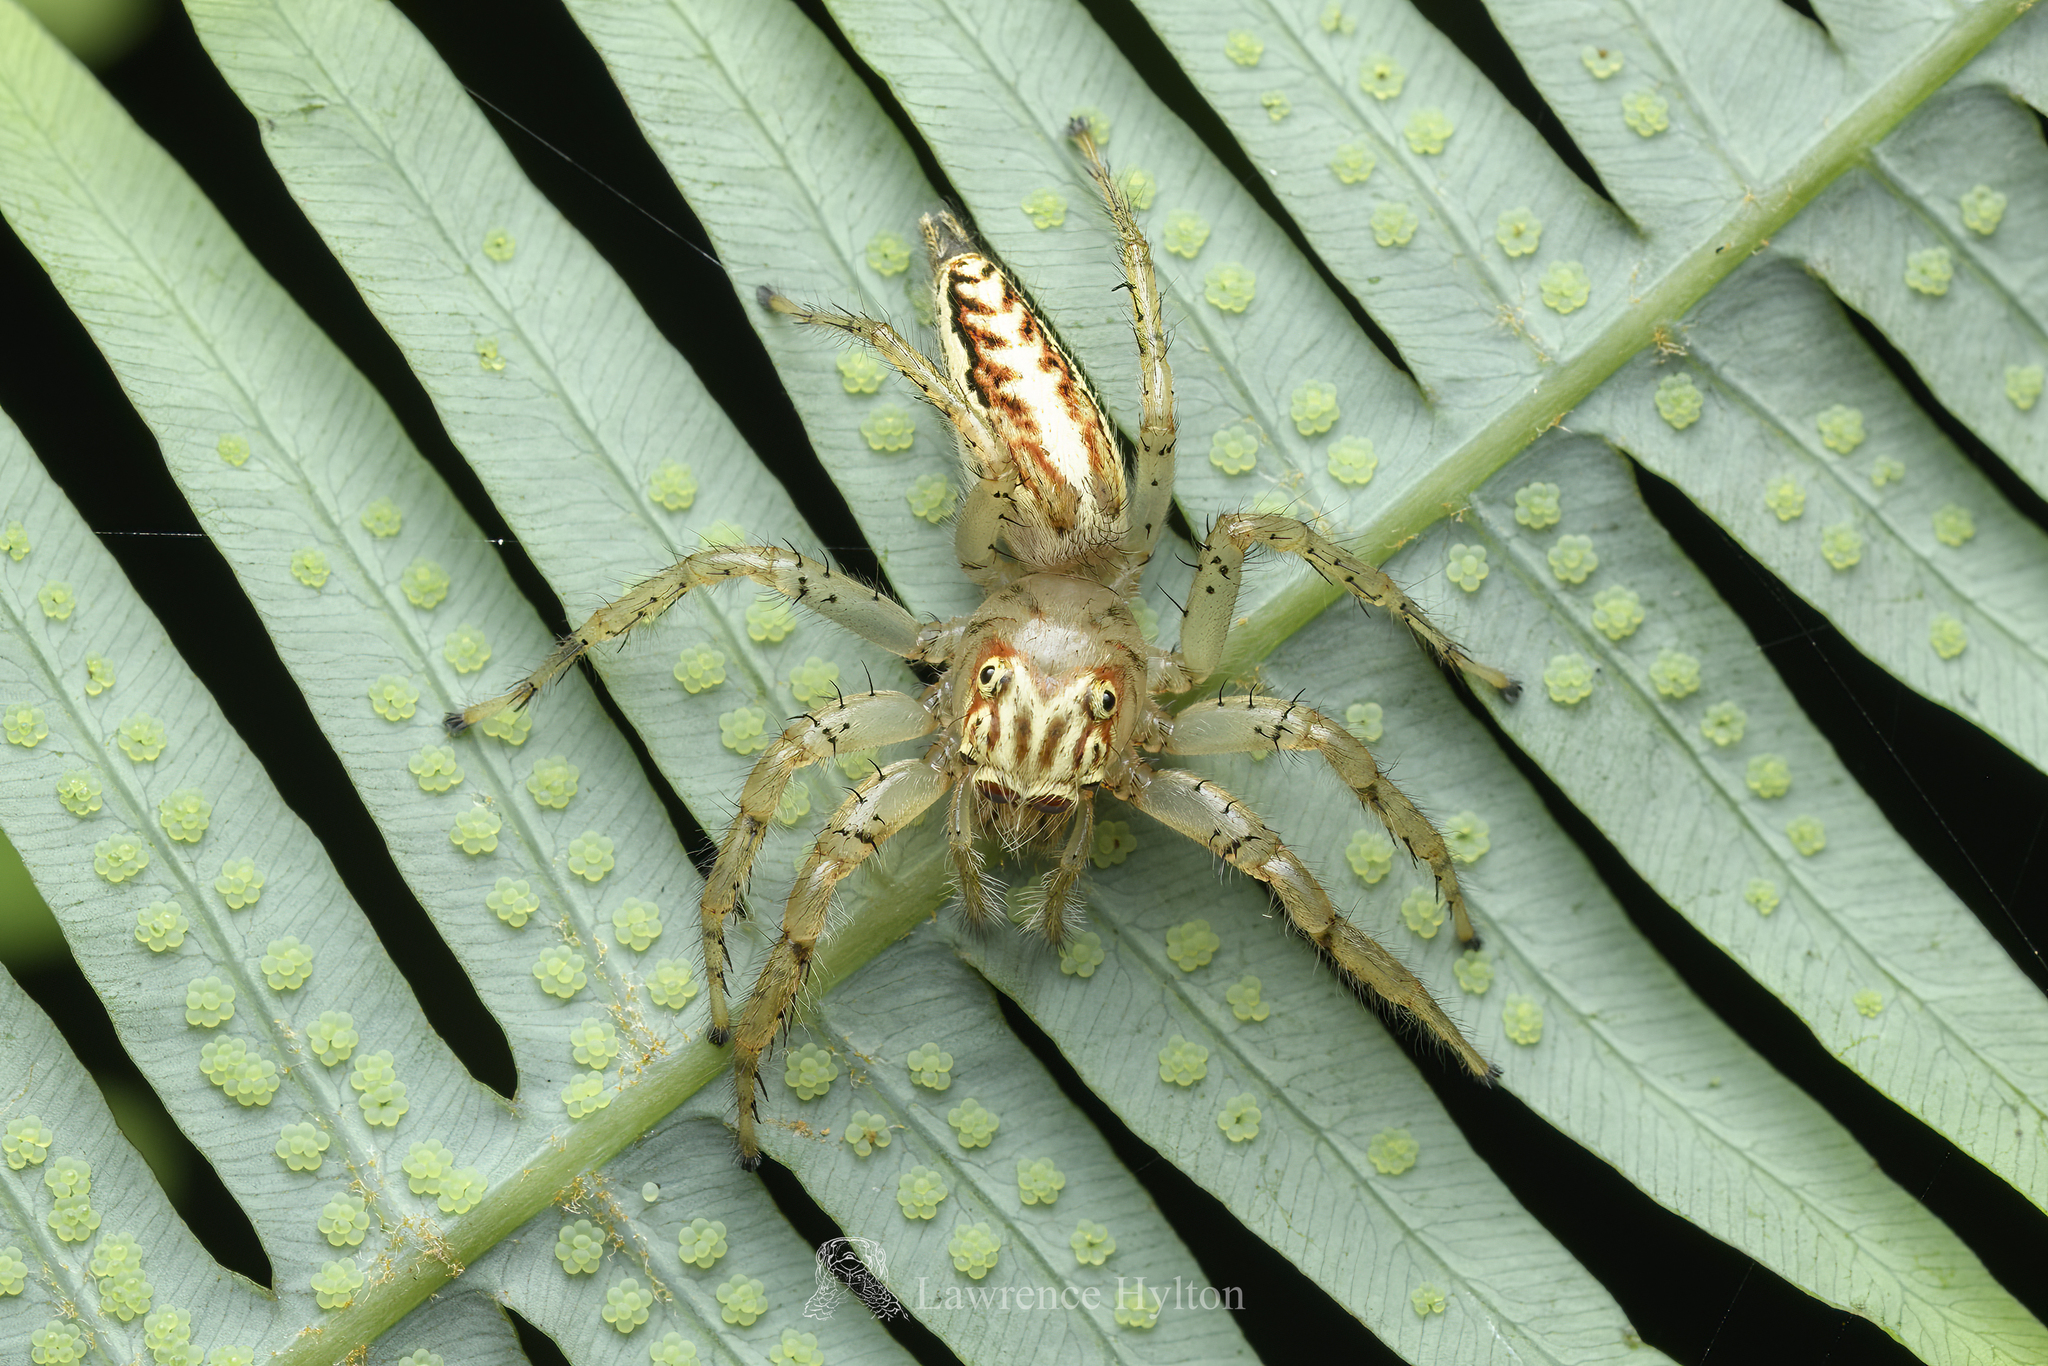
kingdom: Animalia
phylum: Arthropoda
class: Arachnida
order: Araneae
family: Salticidae
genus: Telamonia
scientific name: Telamonia caprina
